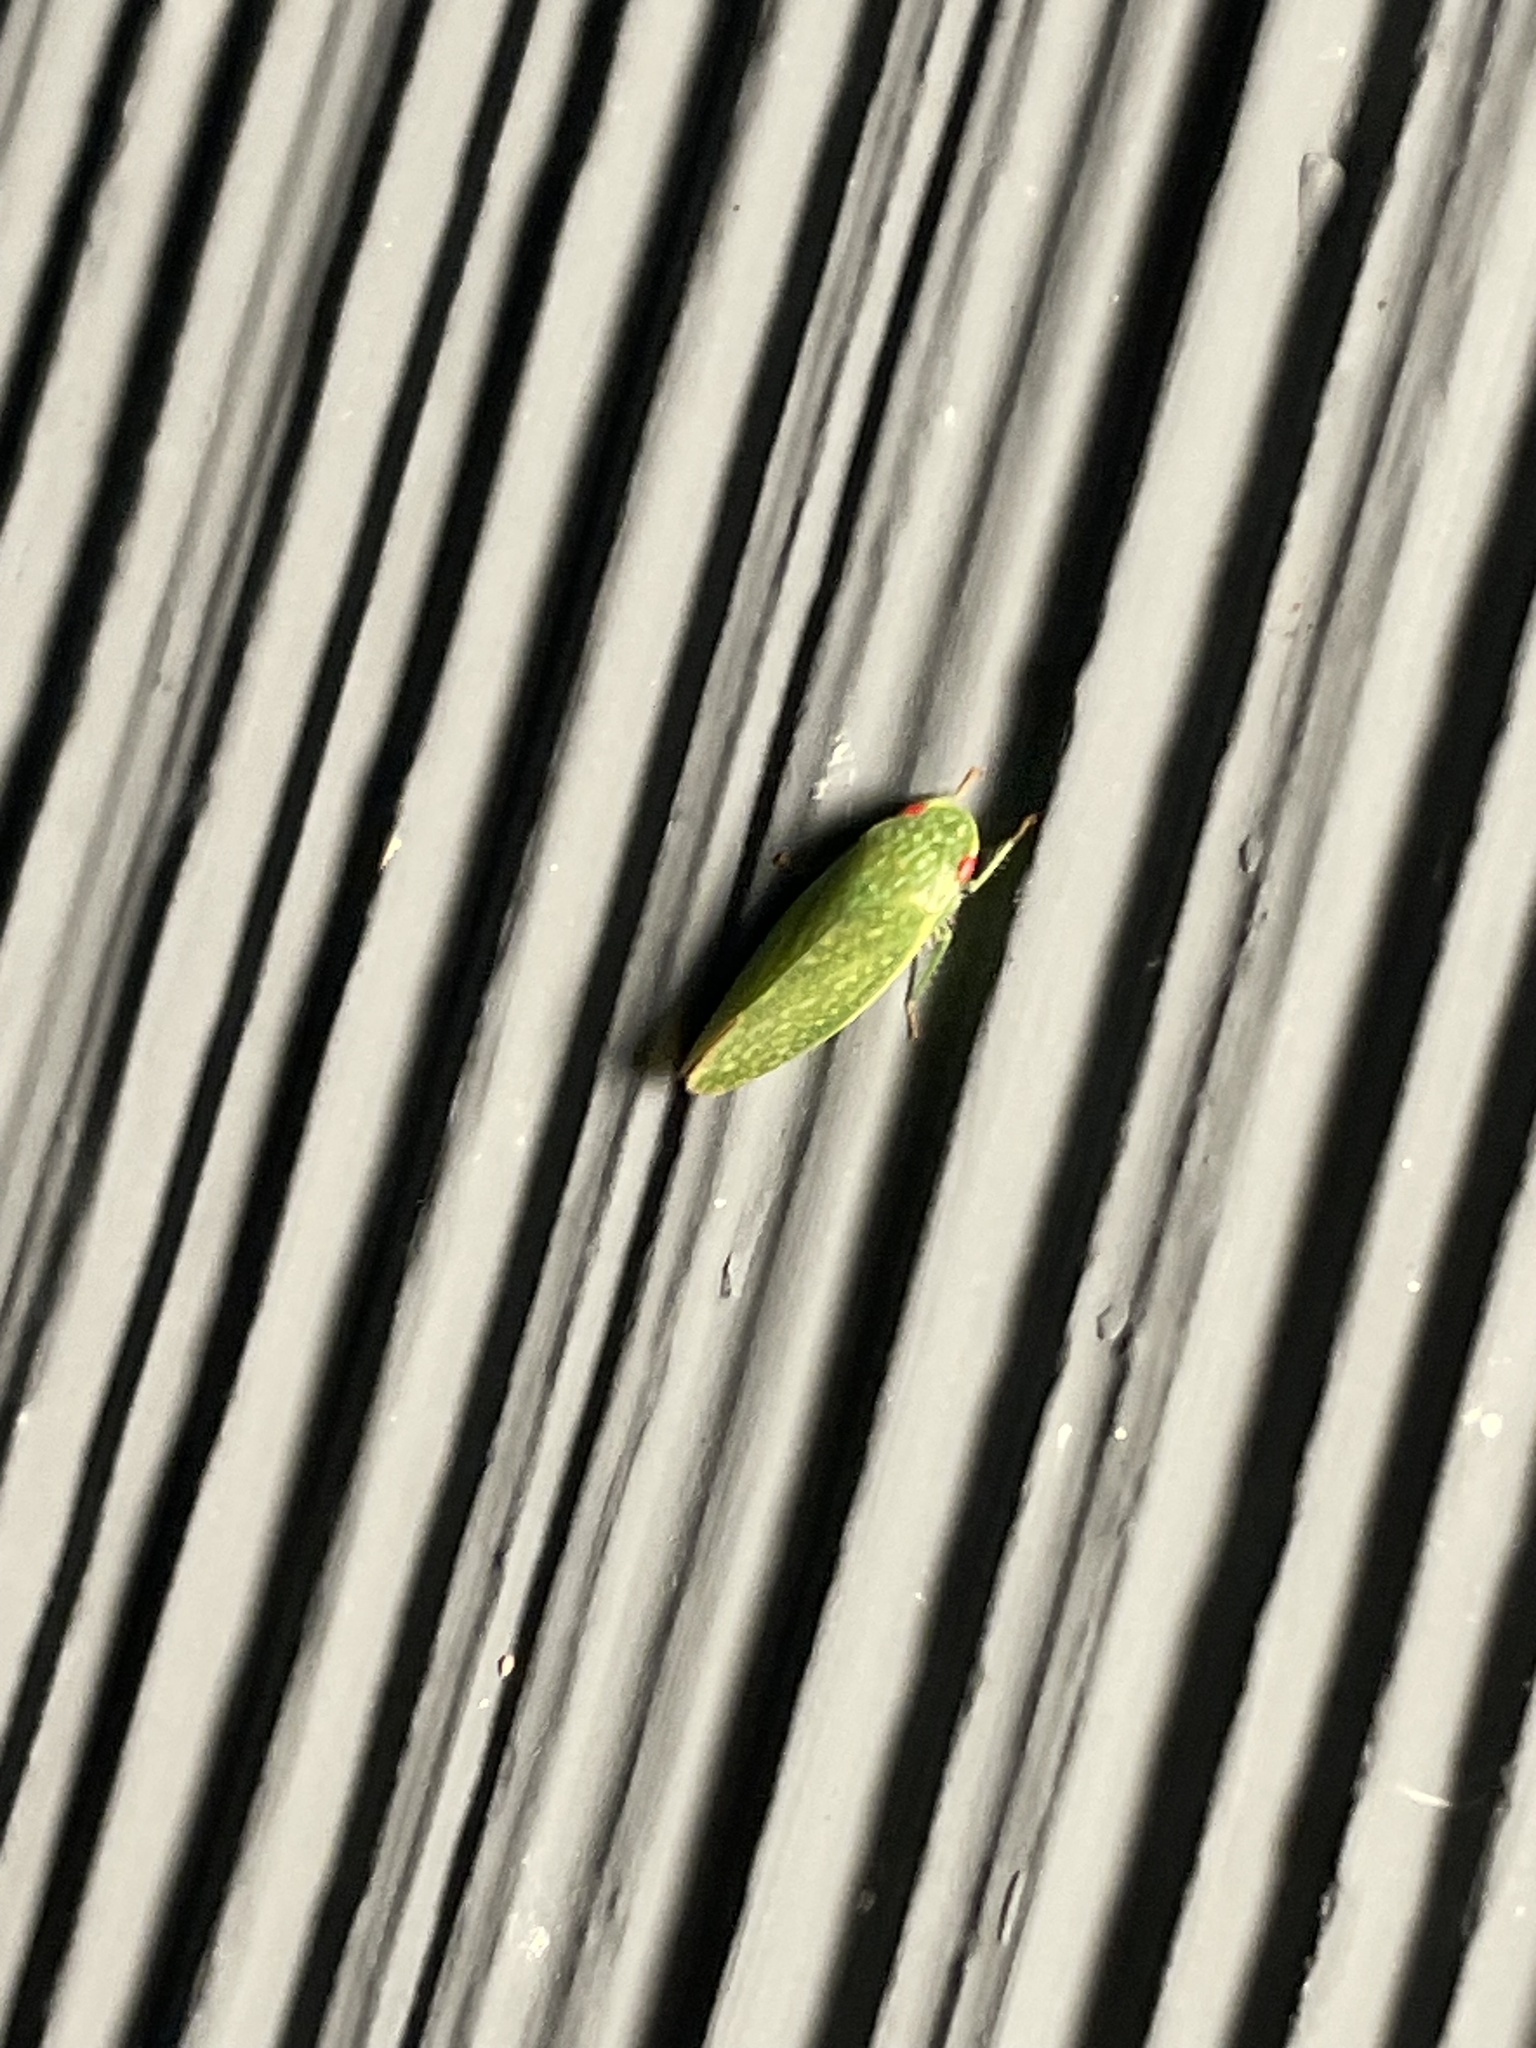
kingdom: Animalia
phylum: Arthropoda
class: Insecta
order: Hemiptera
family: Cicadellidae
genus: Rugosana
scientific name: Rugosana querci
